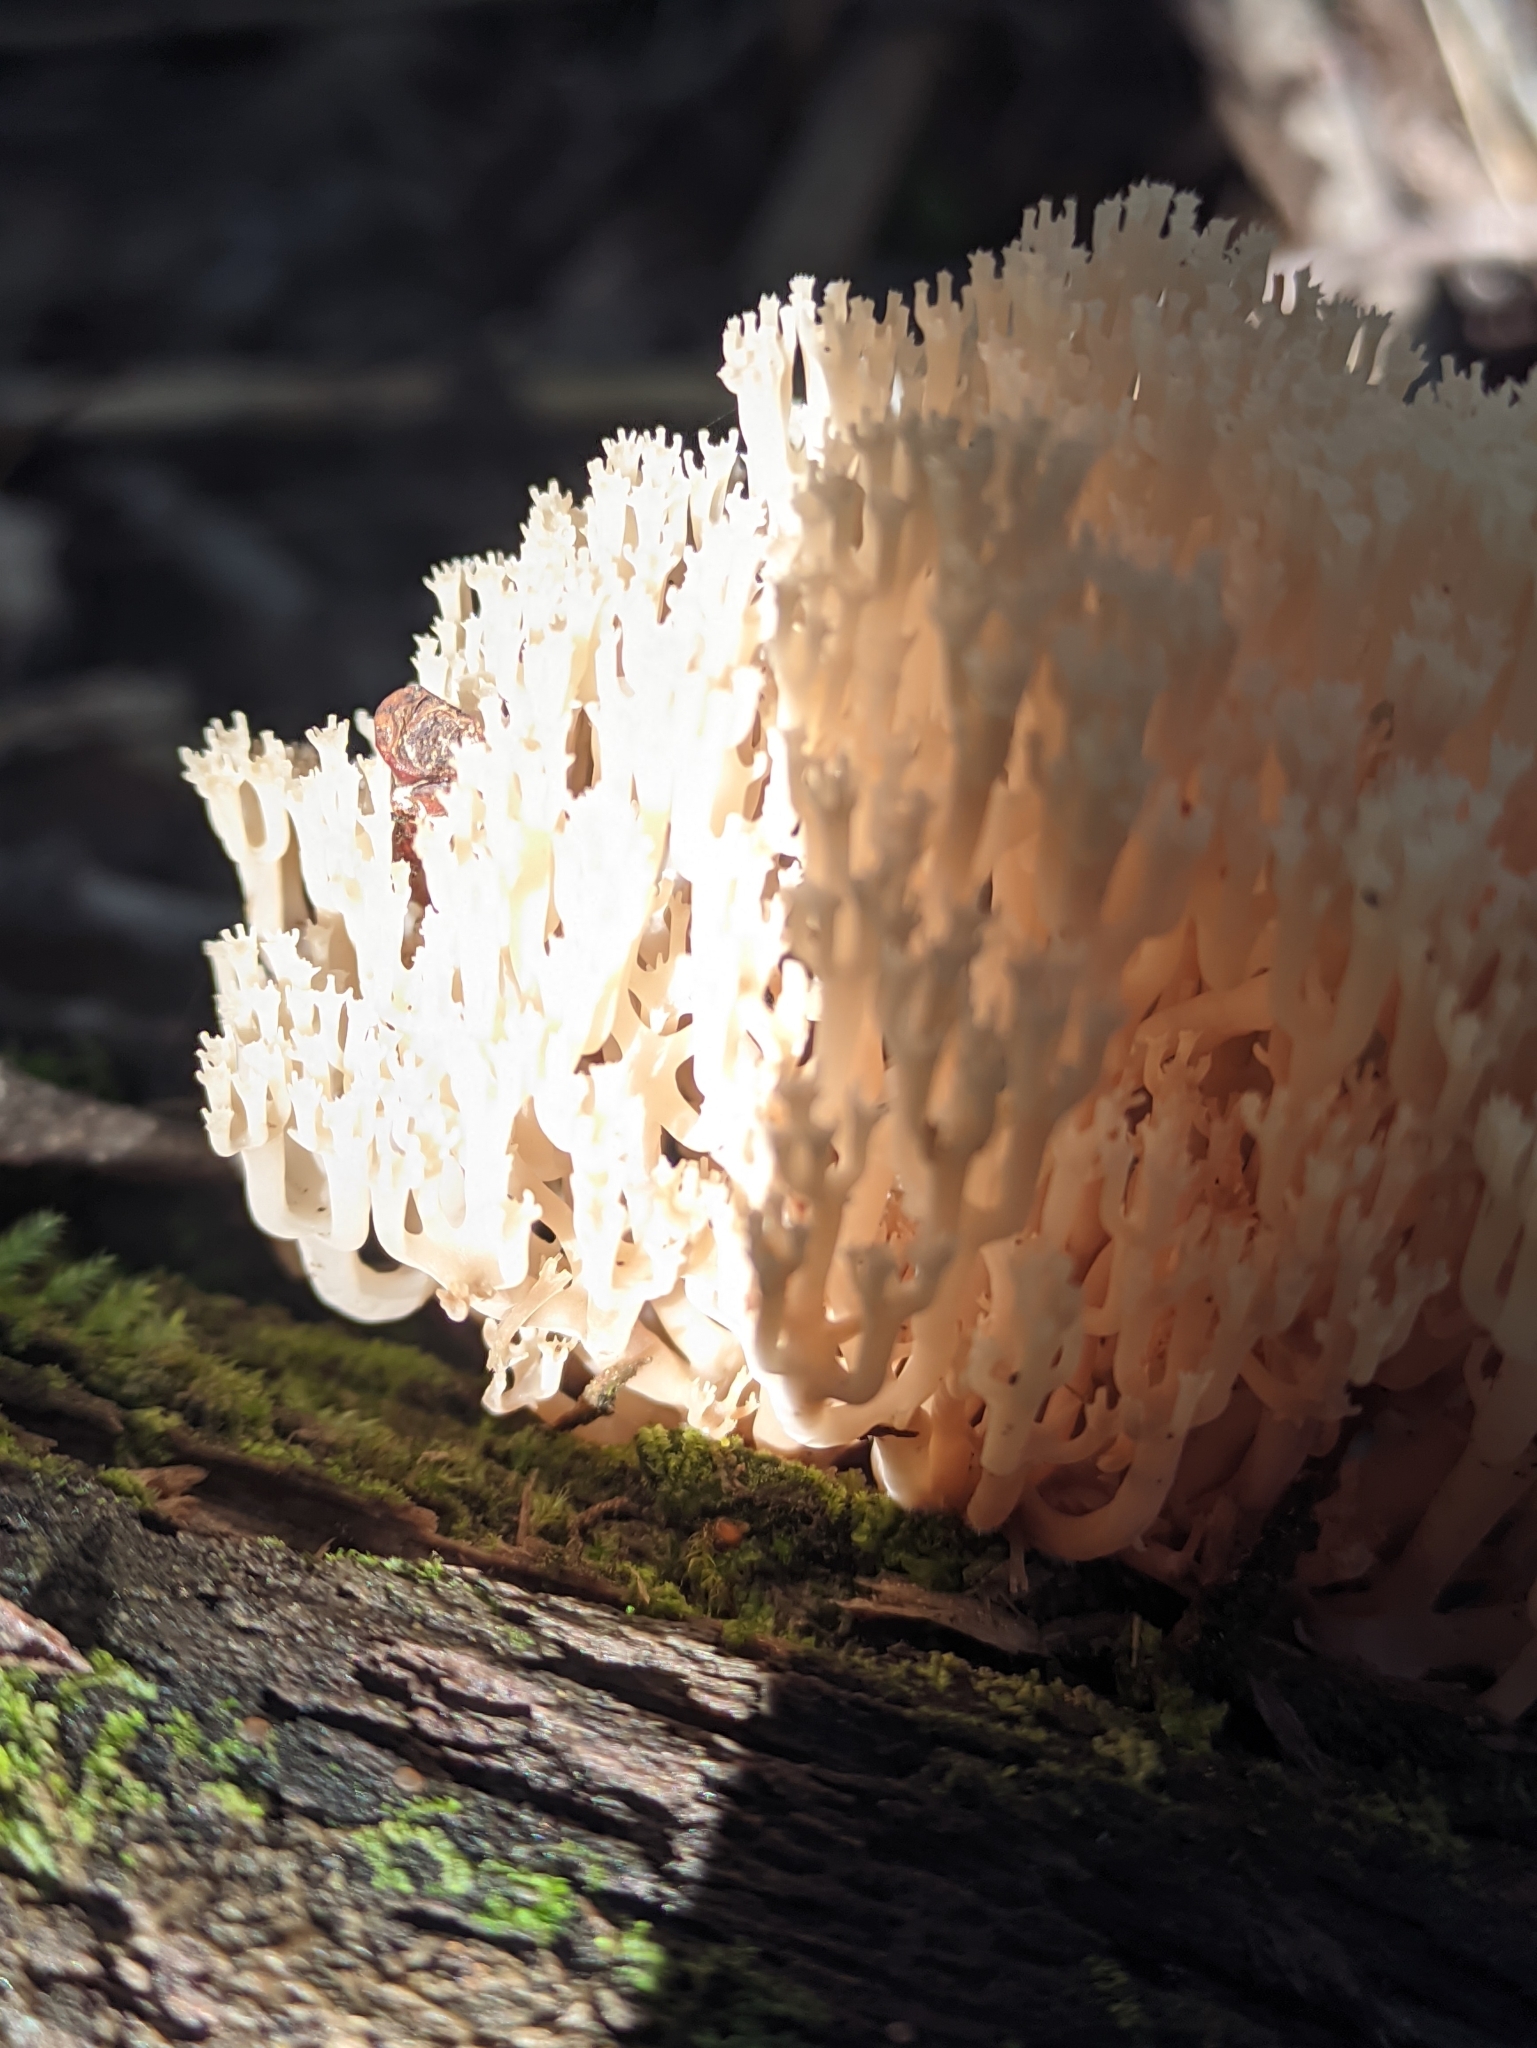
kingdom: Fungi
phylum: Basidiomycota
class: Agaricomycetes
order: Russulales
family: Auriscalpiaceae
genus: Artomyces
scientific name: Artomyces pyxidatus
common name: Crown-tipped coral fungus
